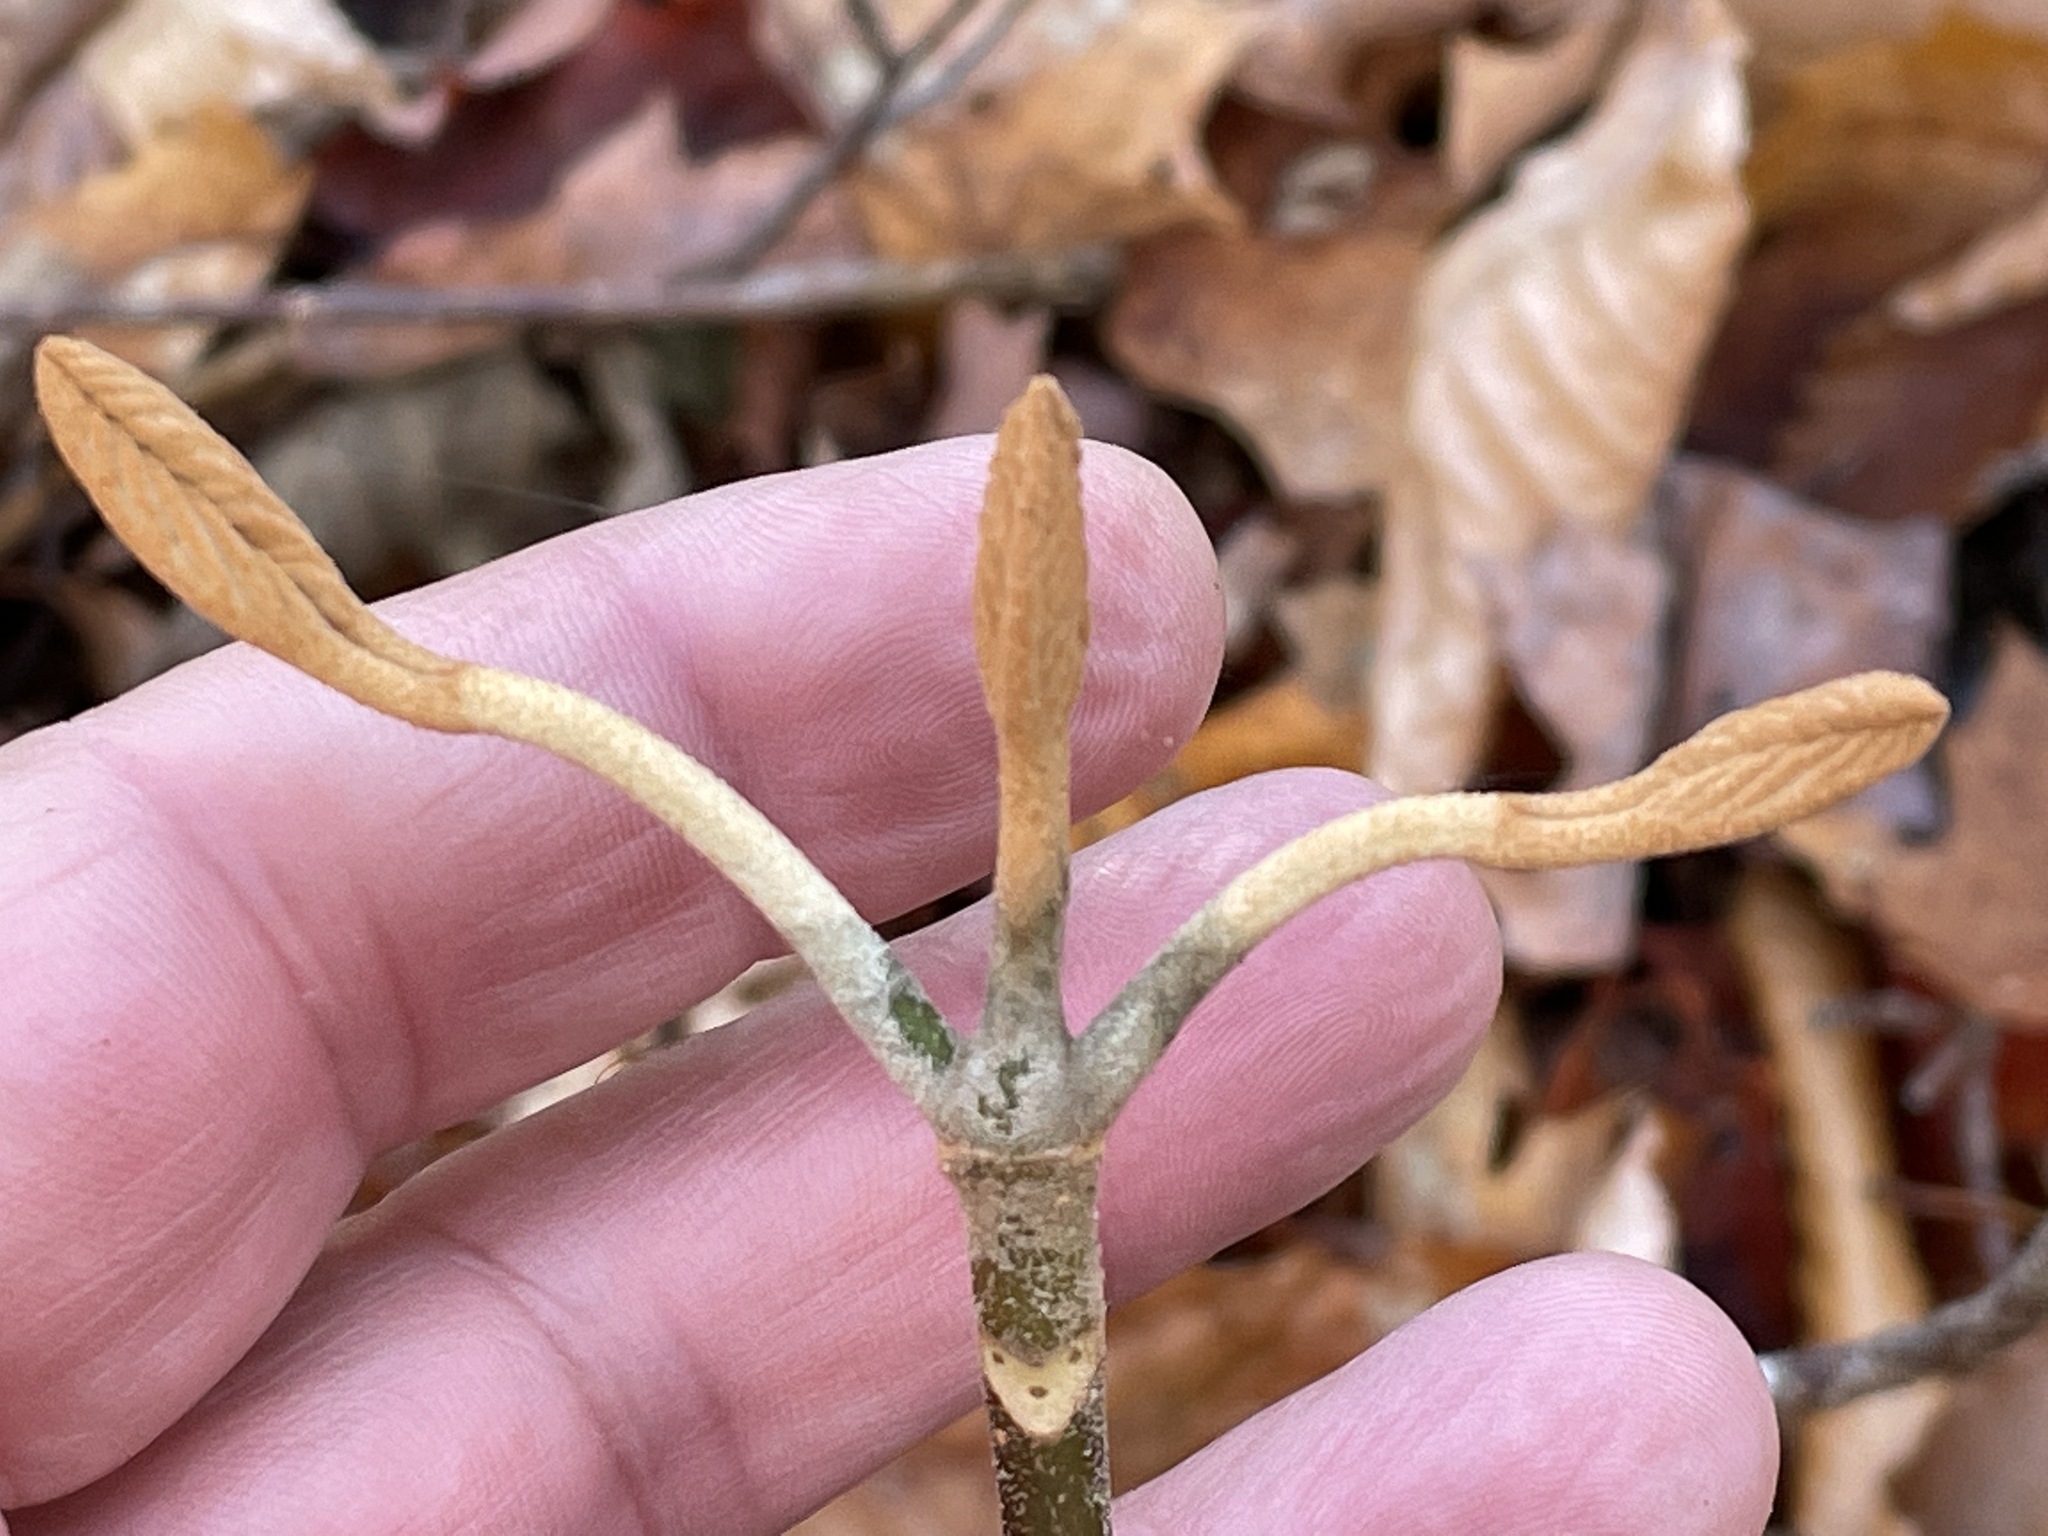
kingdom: Plantae
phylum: Tracheophyta
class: Magnoliopsida
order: Dipsacales
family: Viburnaceae
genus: Viburnum
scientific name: Viburnum lantanoides
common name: Hobblebush
